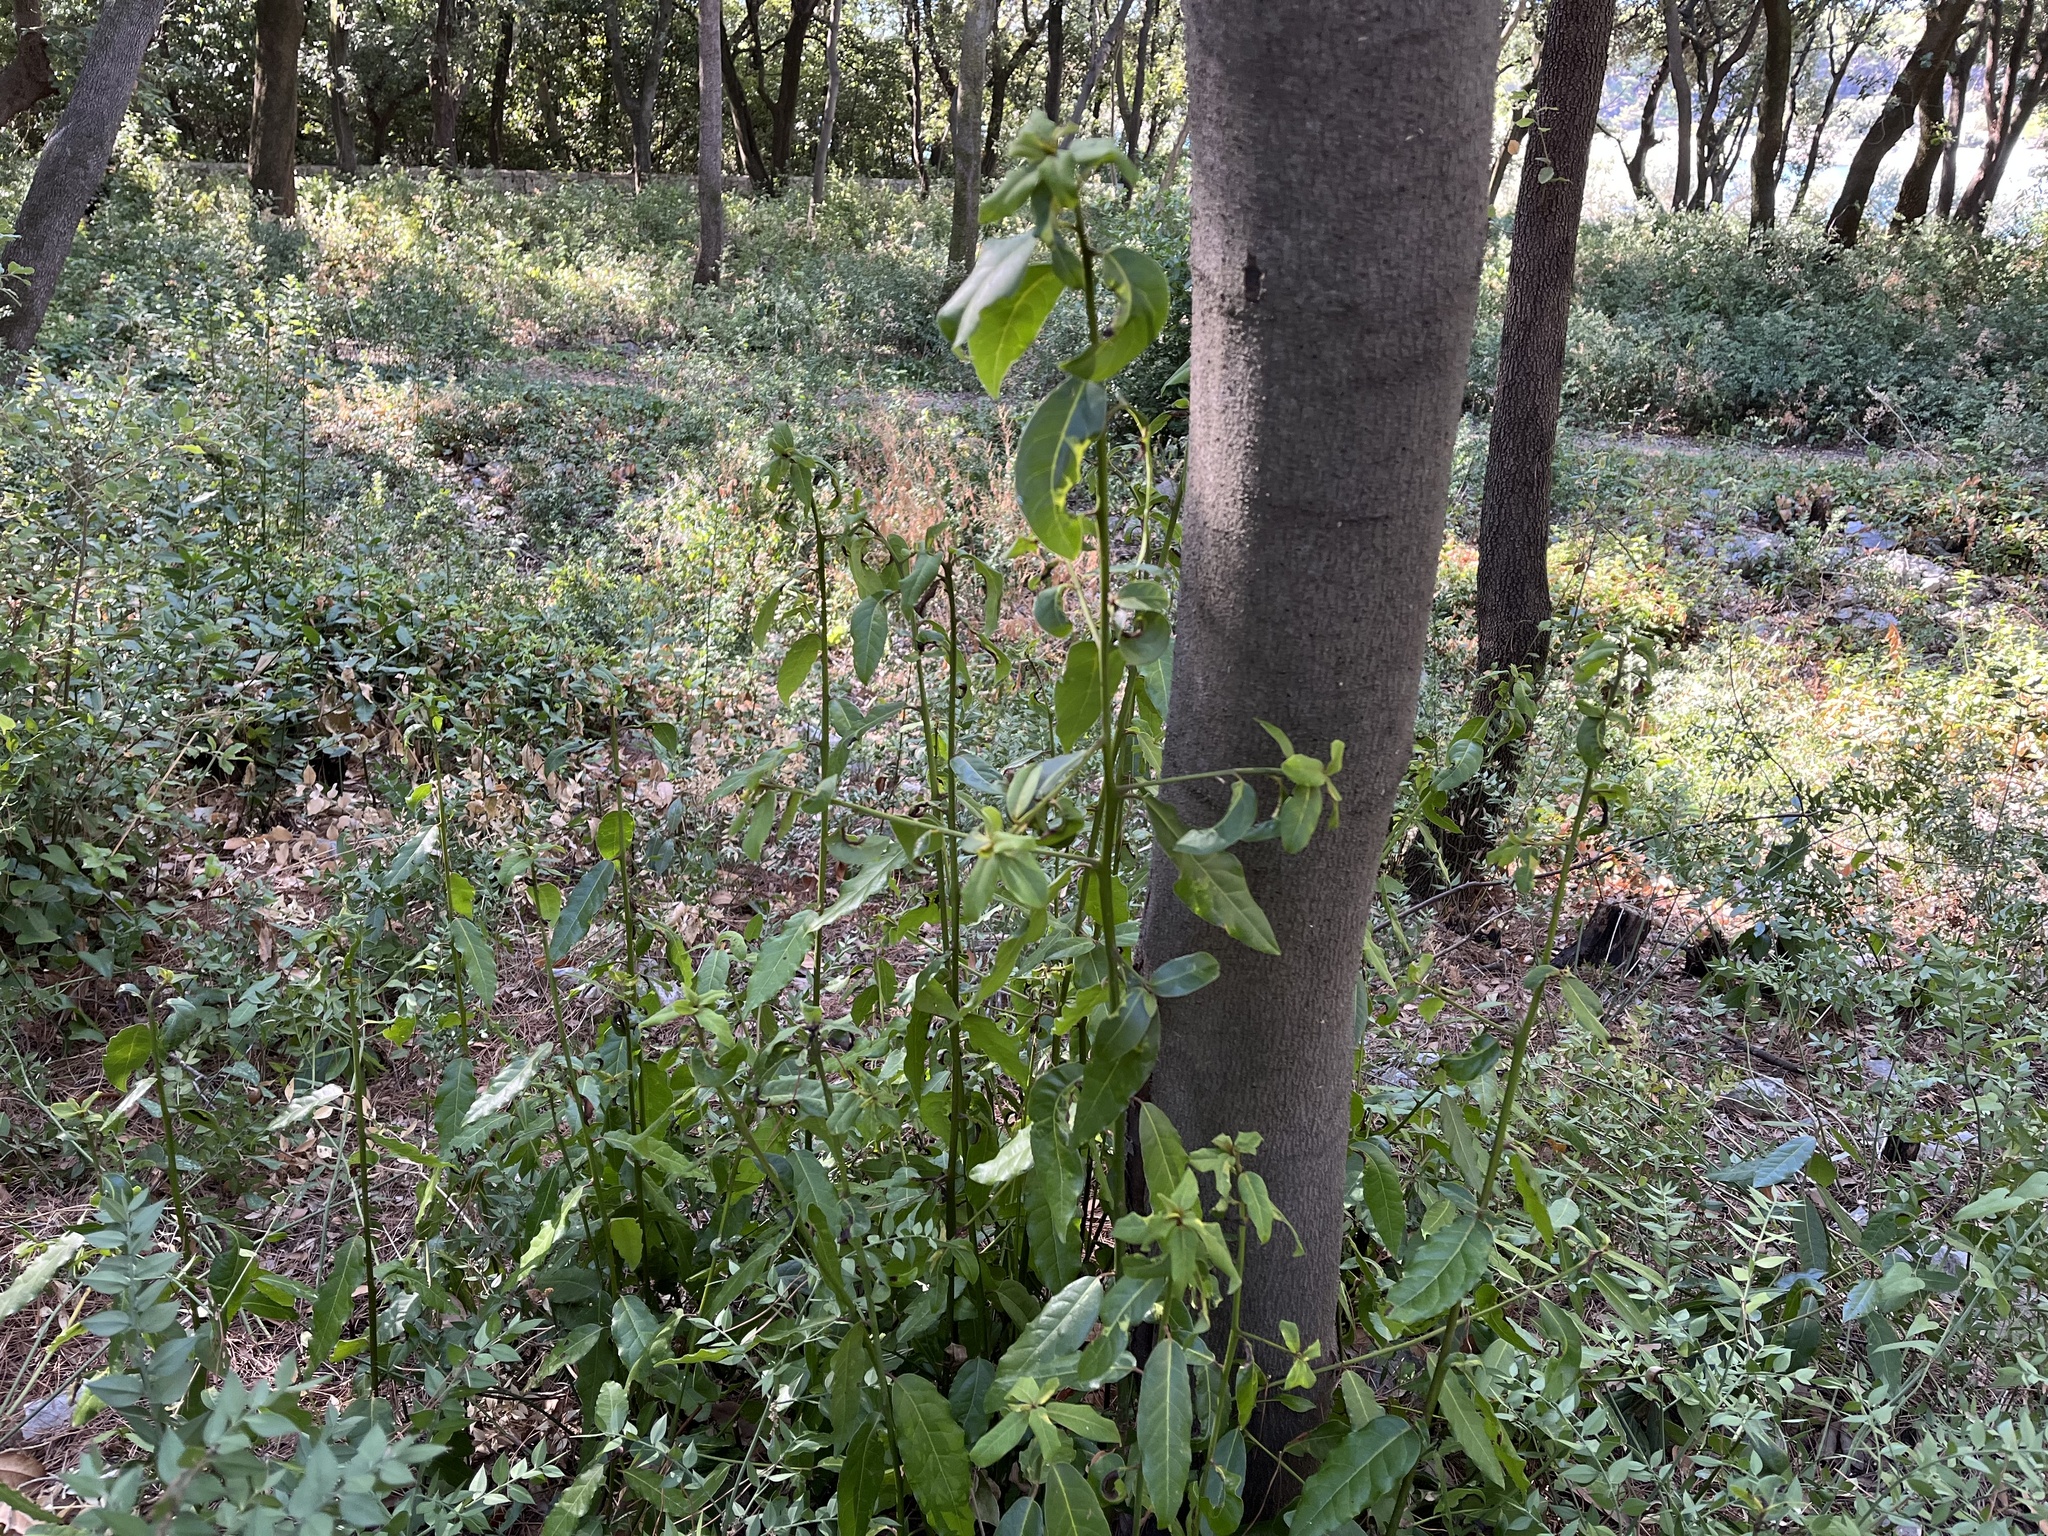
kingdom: Plantae
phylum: Tracheophyta
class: Magnoliopsida
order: Laurales
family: Lauraceae
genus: Laurus
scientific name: Laurus nobilis
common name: Bay
